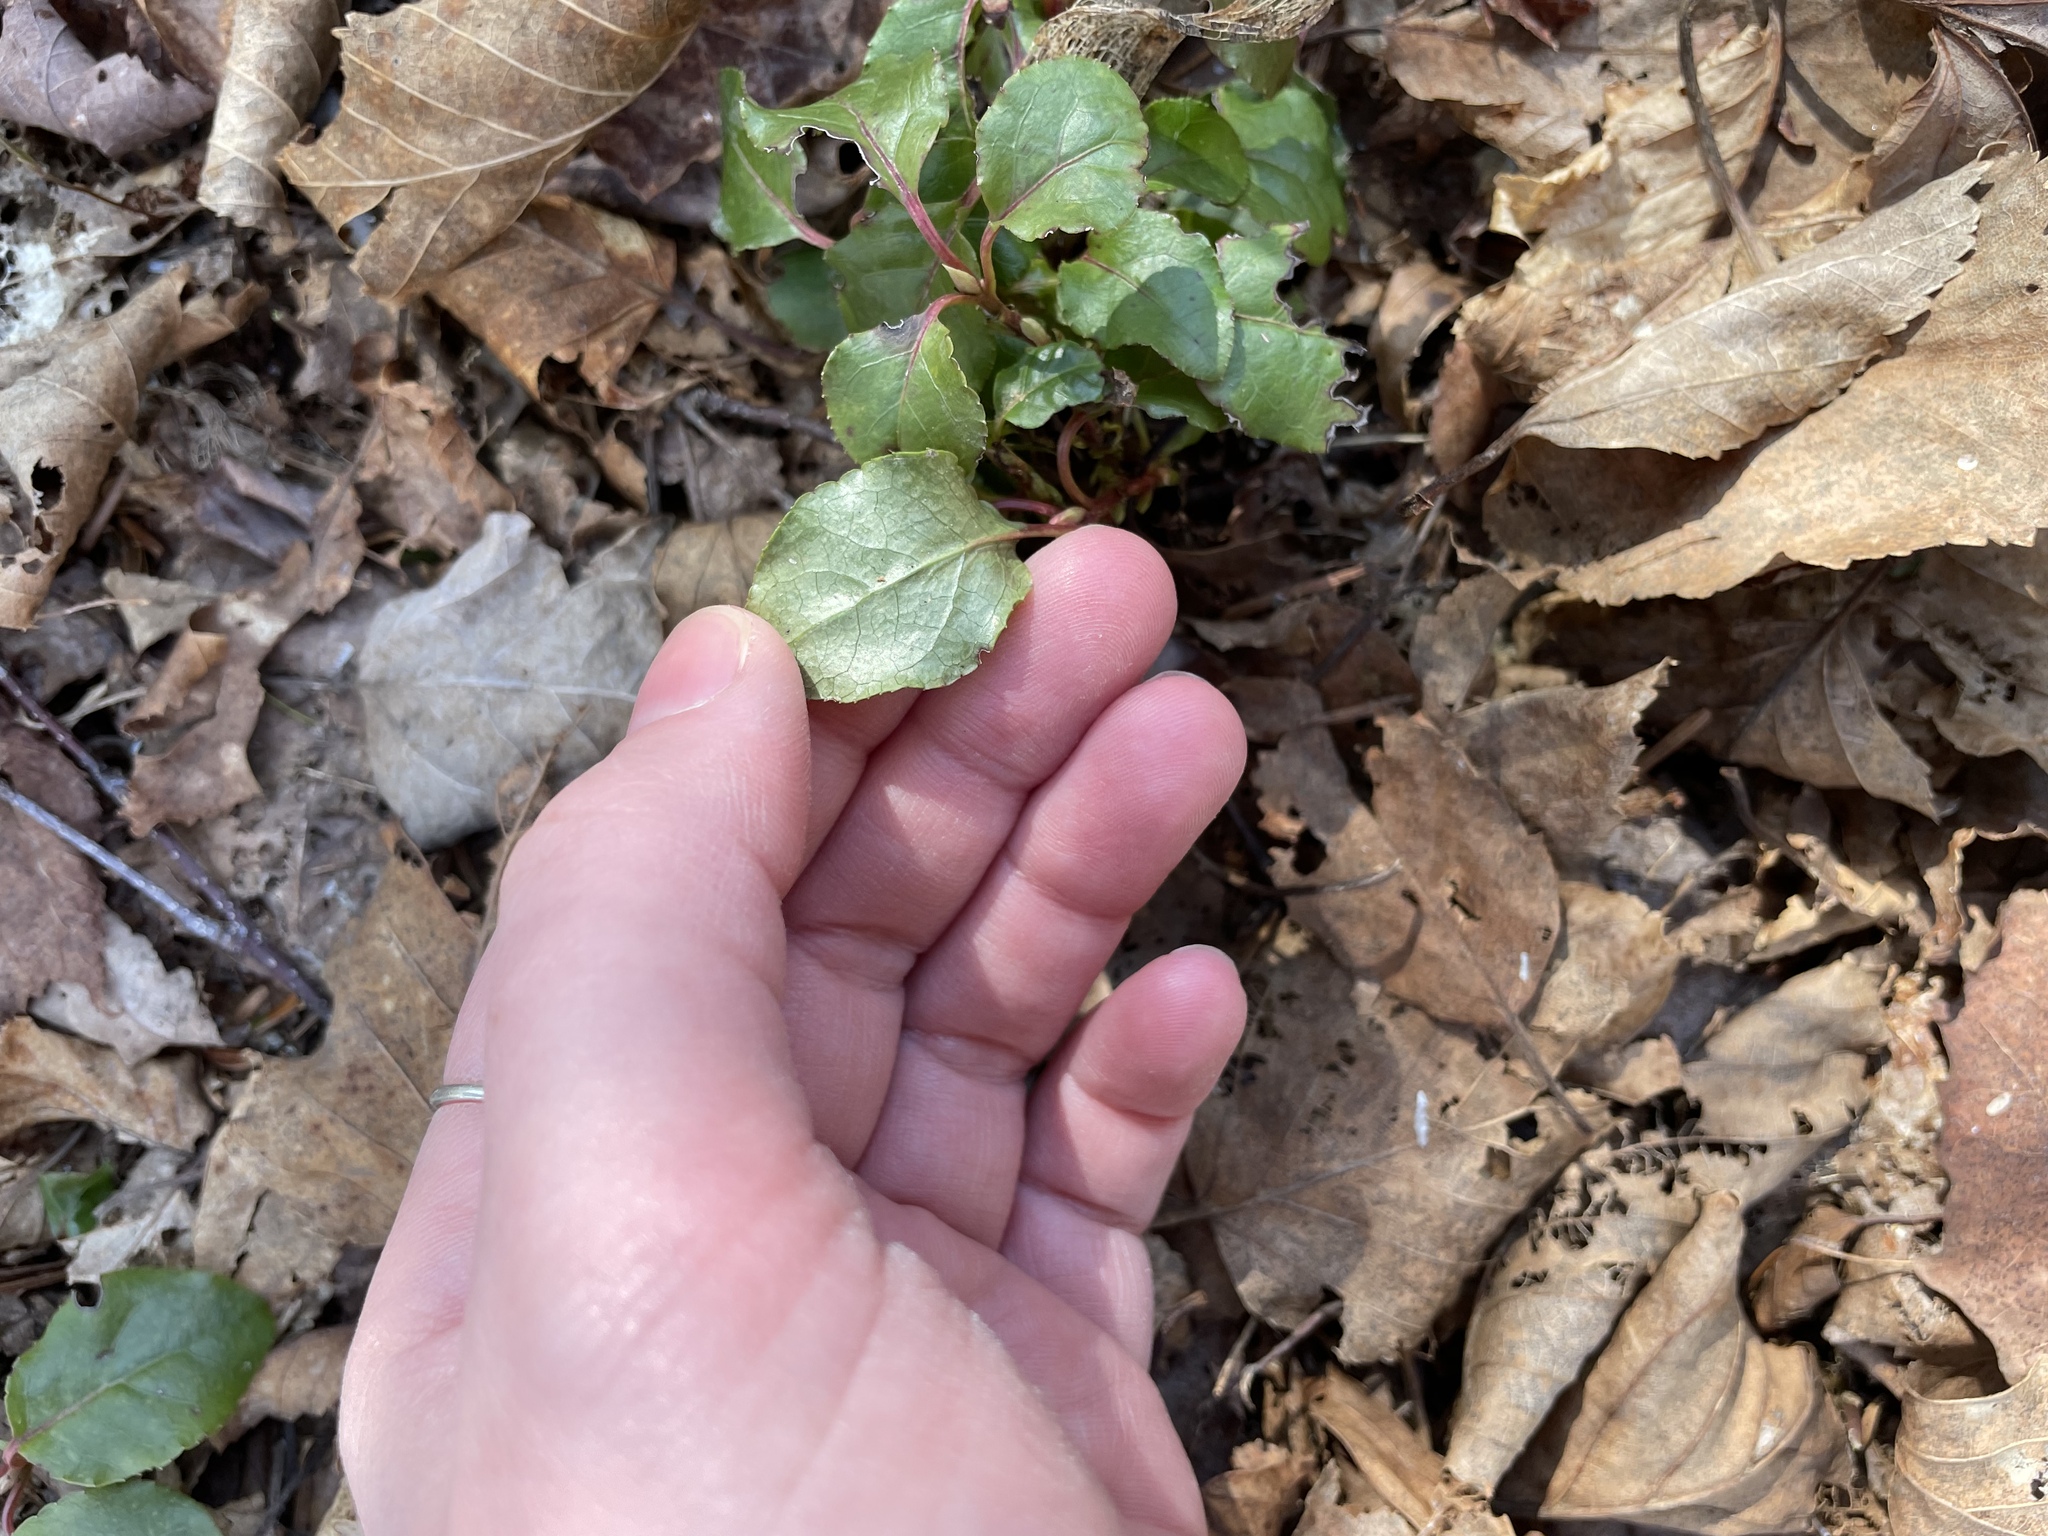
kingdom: Plantae
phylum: Tracheophyta
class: Magnoliopsida
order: Ericales
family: Ericaceae
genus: Orthilia
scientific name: Orthilia secunda
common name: One-sided orthilia
